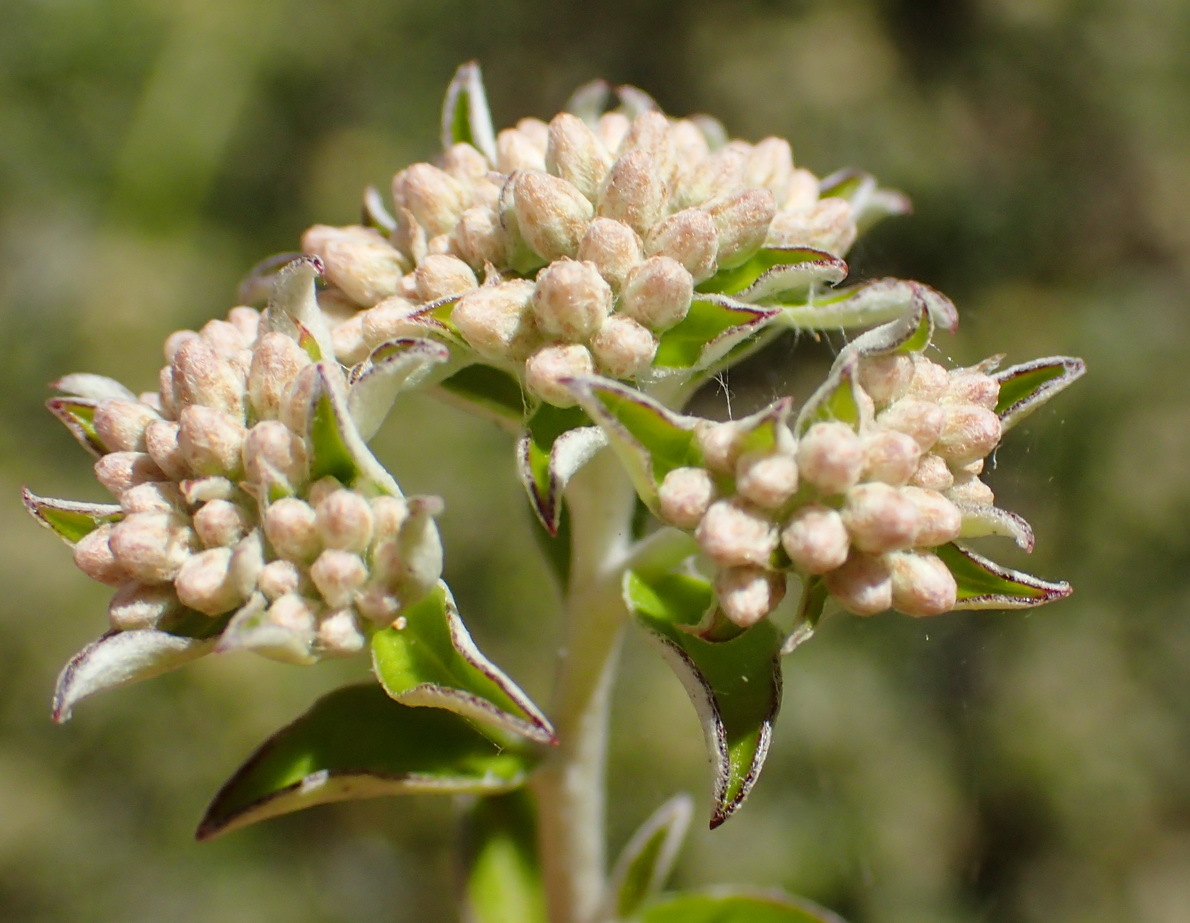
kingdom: Plantae
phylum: Tracheophyta
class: Magnoliopsida
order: Asterales
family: Asteraceae
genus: Plecostachys
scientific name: Plecostachys polifolia
